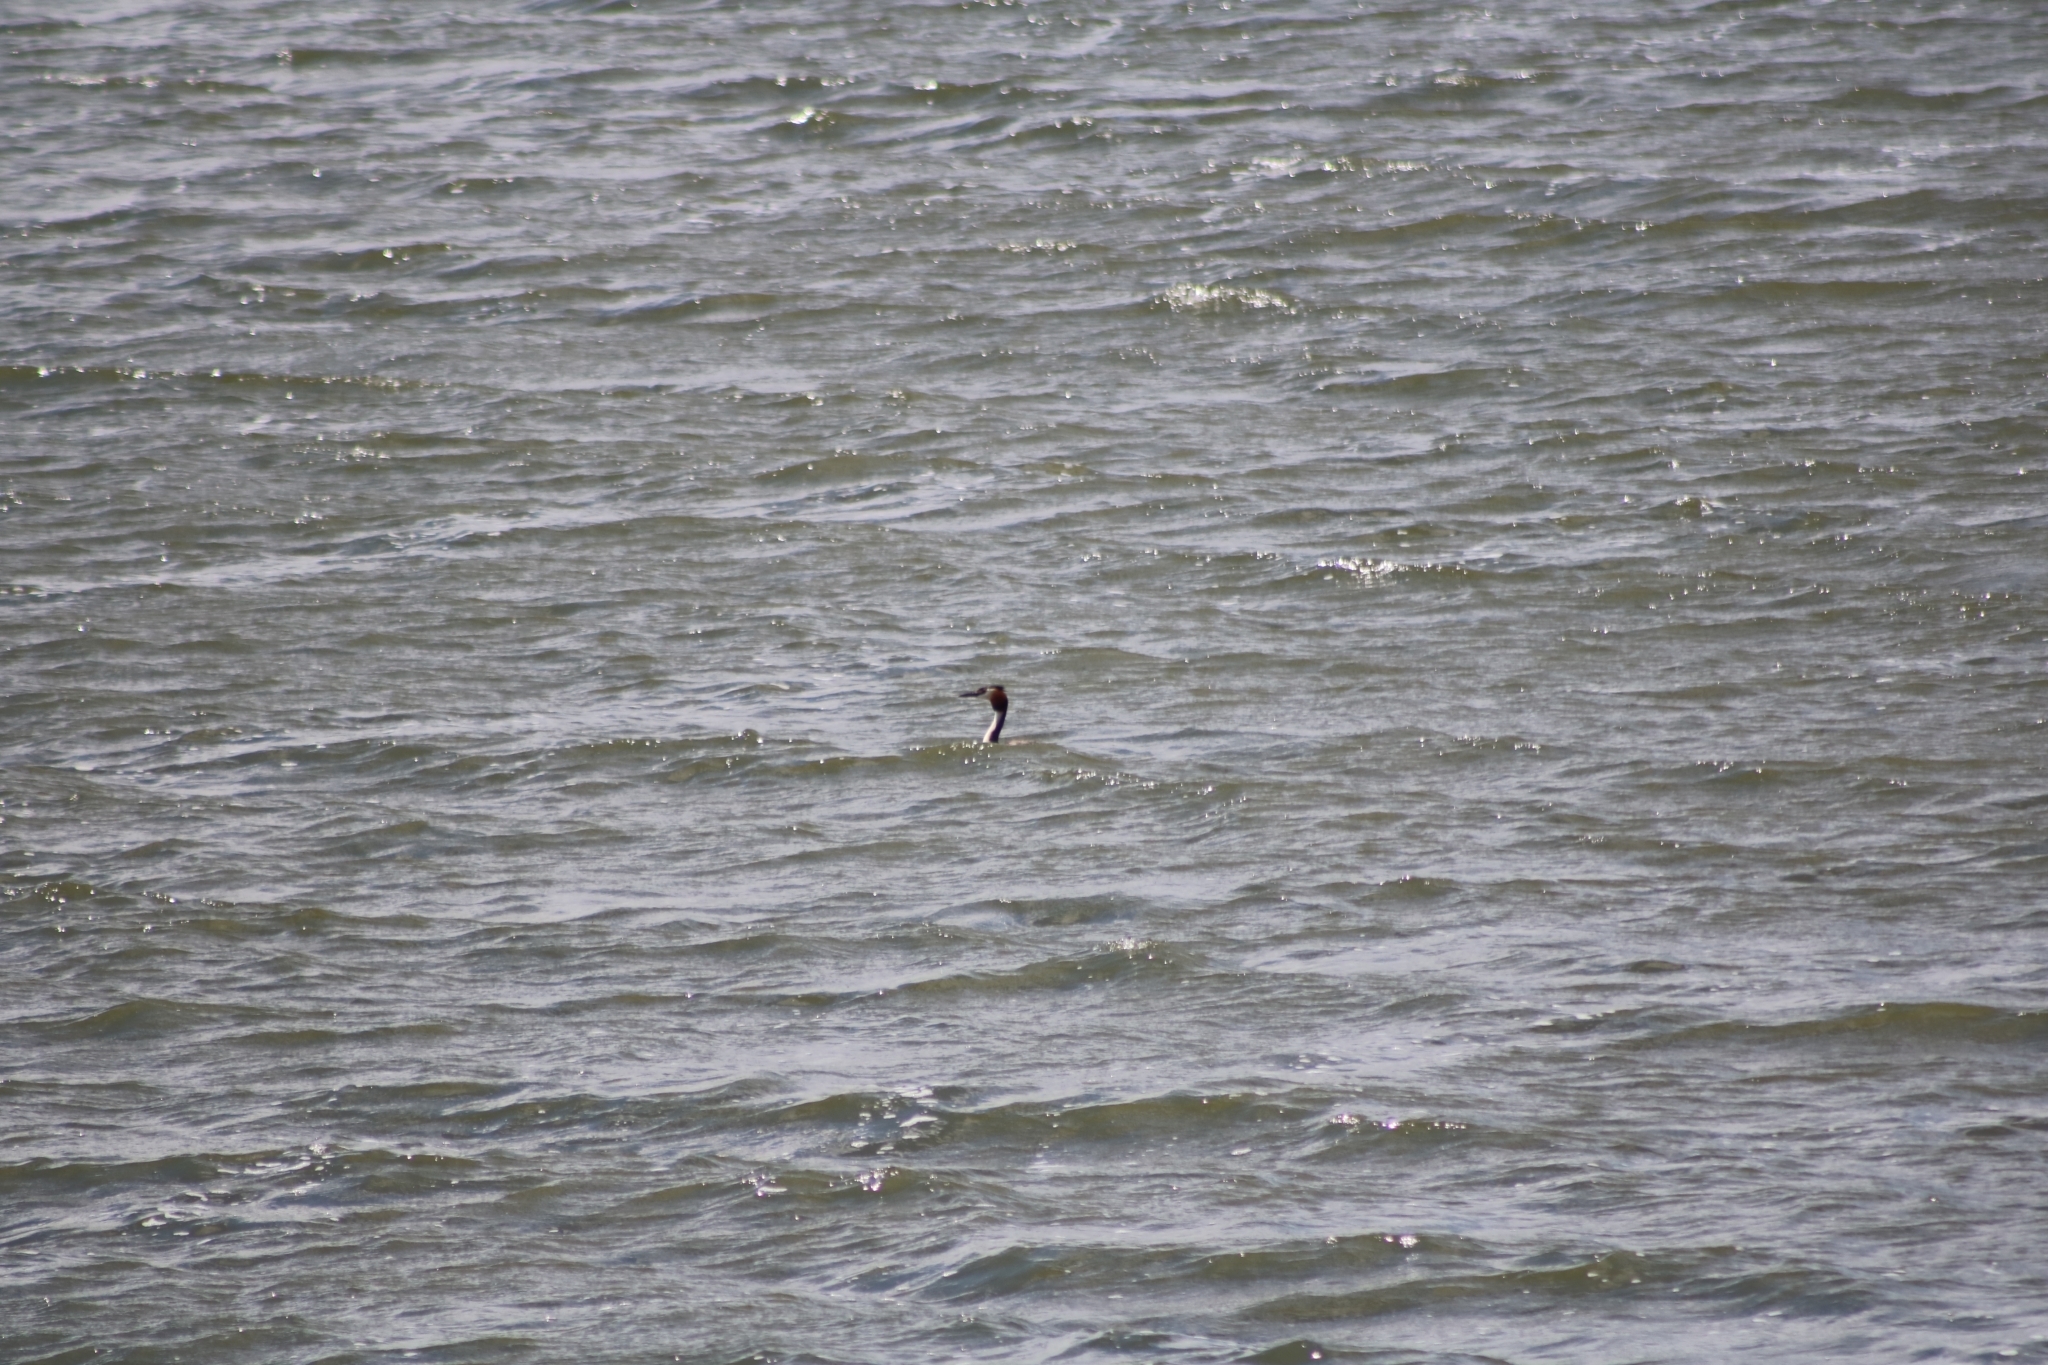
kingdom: Animalia
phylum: Chordata
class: Aves
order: Podicipediformes
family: Podicipedidae
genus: Podiceps
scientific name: Podiceps cristatus
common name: Great crested grebe
